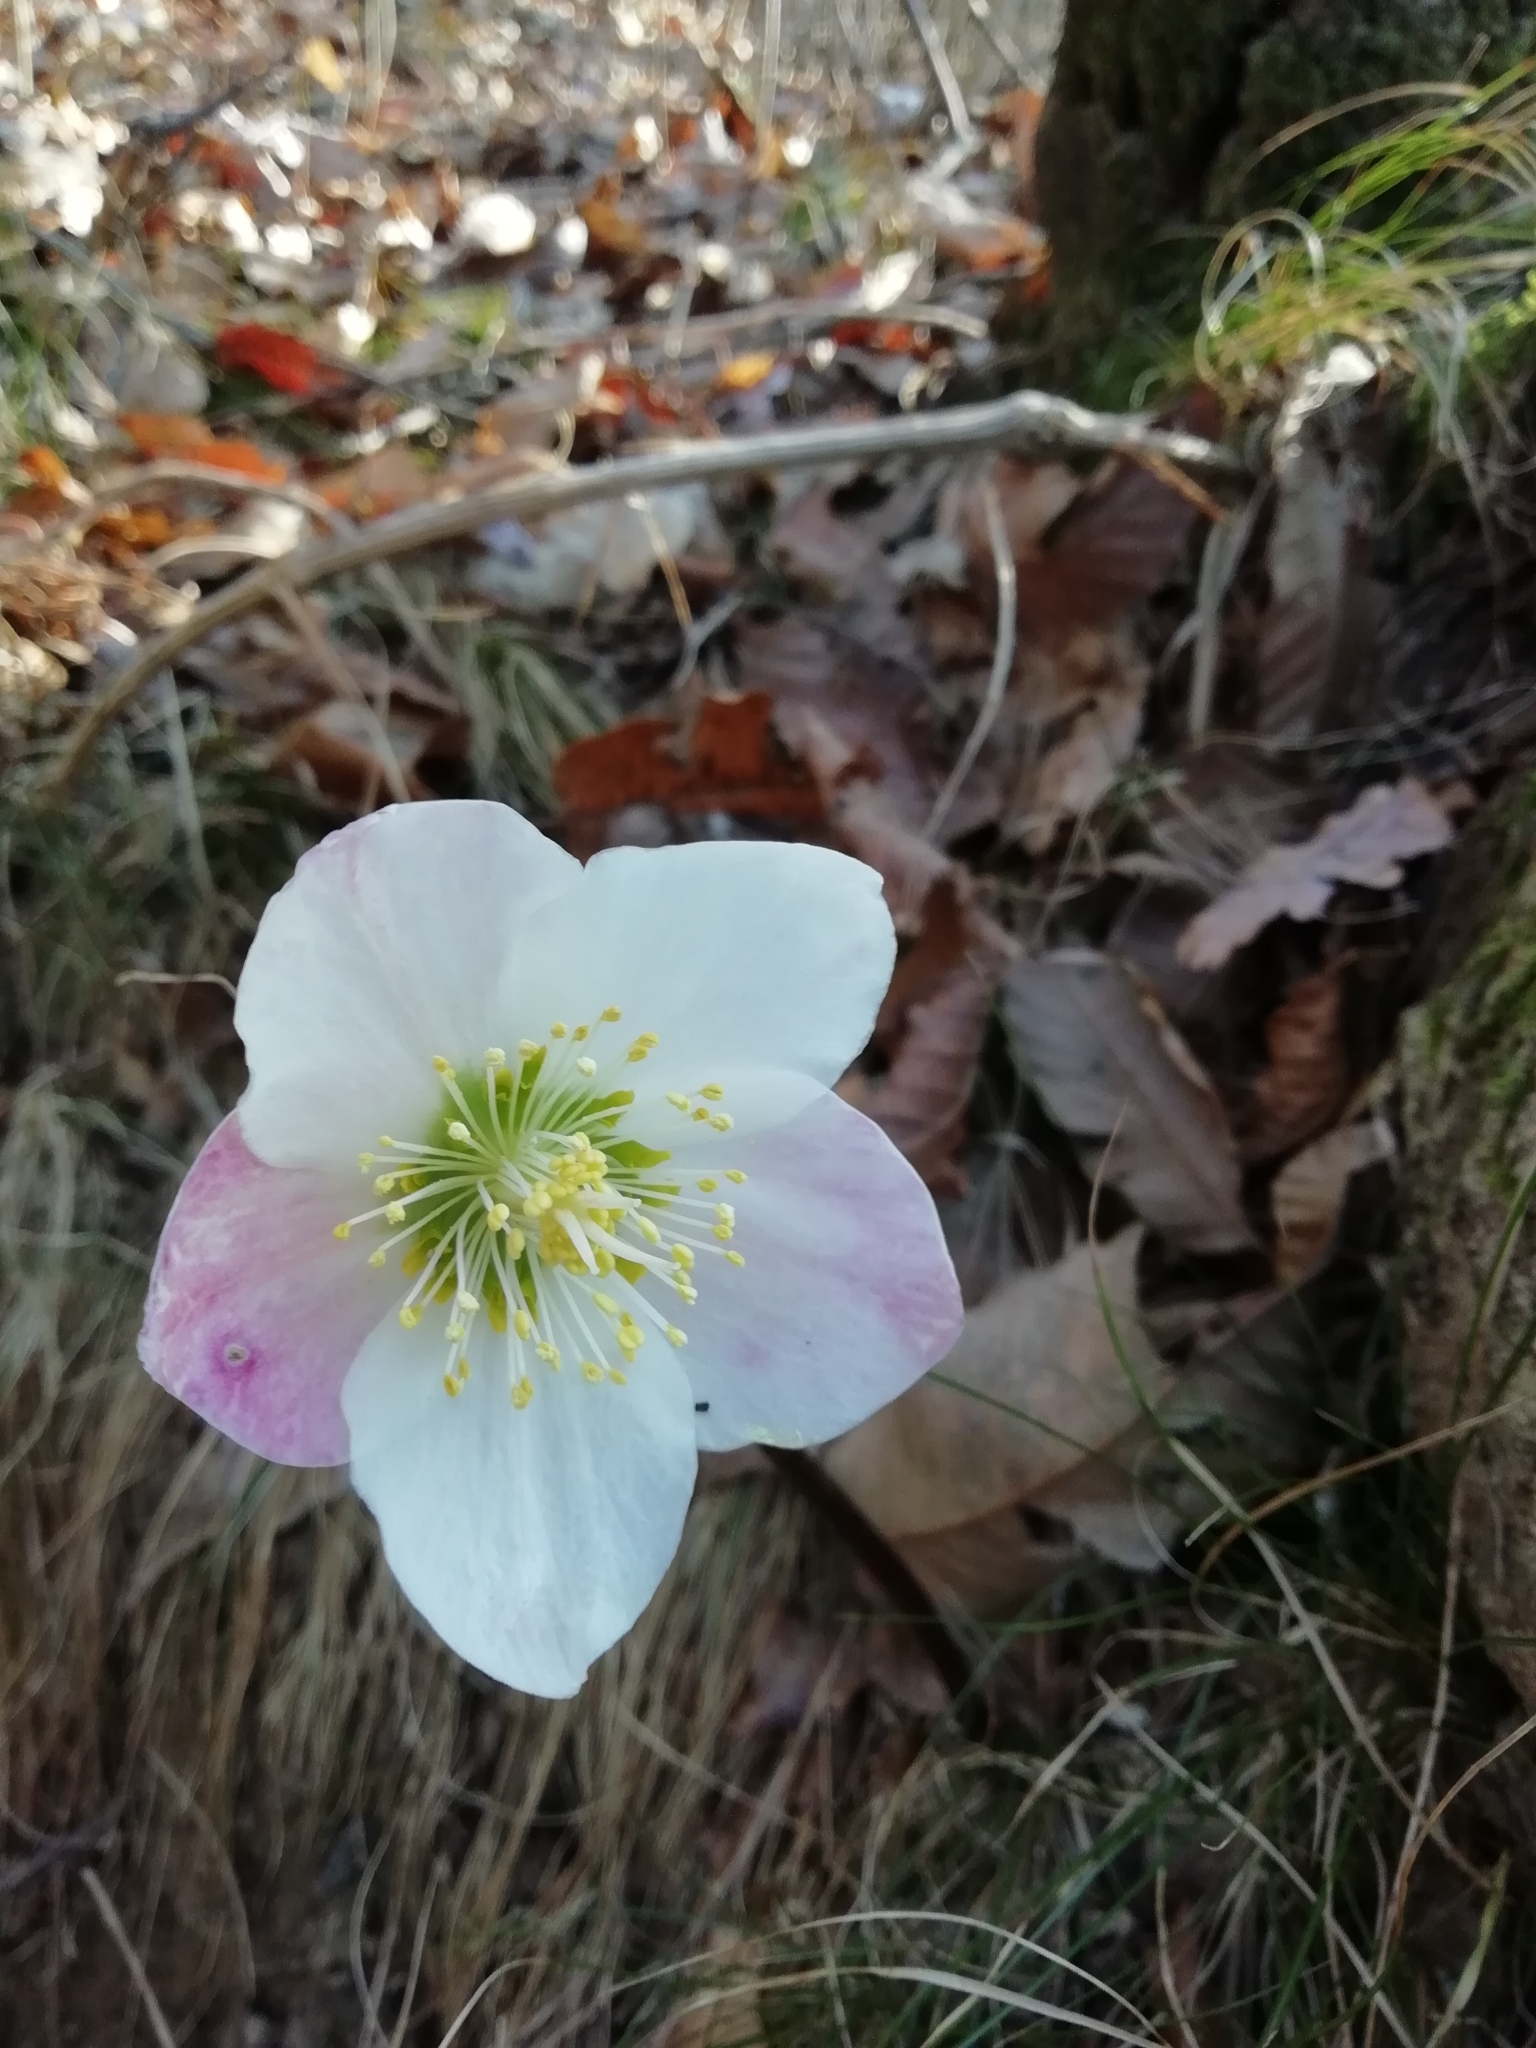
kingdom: Plantae
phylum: Tracheophyta
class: Magnoliopsida
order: Ranunculales
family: Ranunculaceae
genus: Helleborus
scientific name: Helleborus niger
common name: Black hellebore
